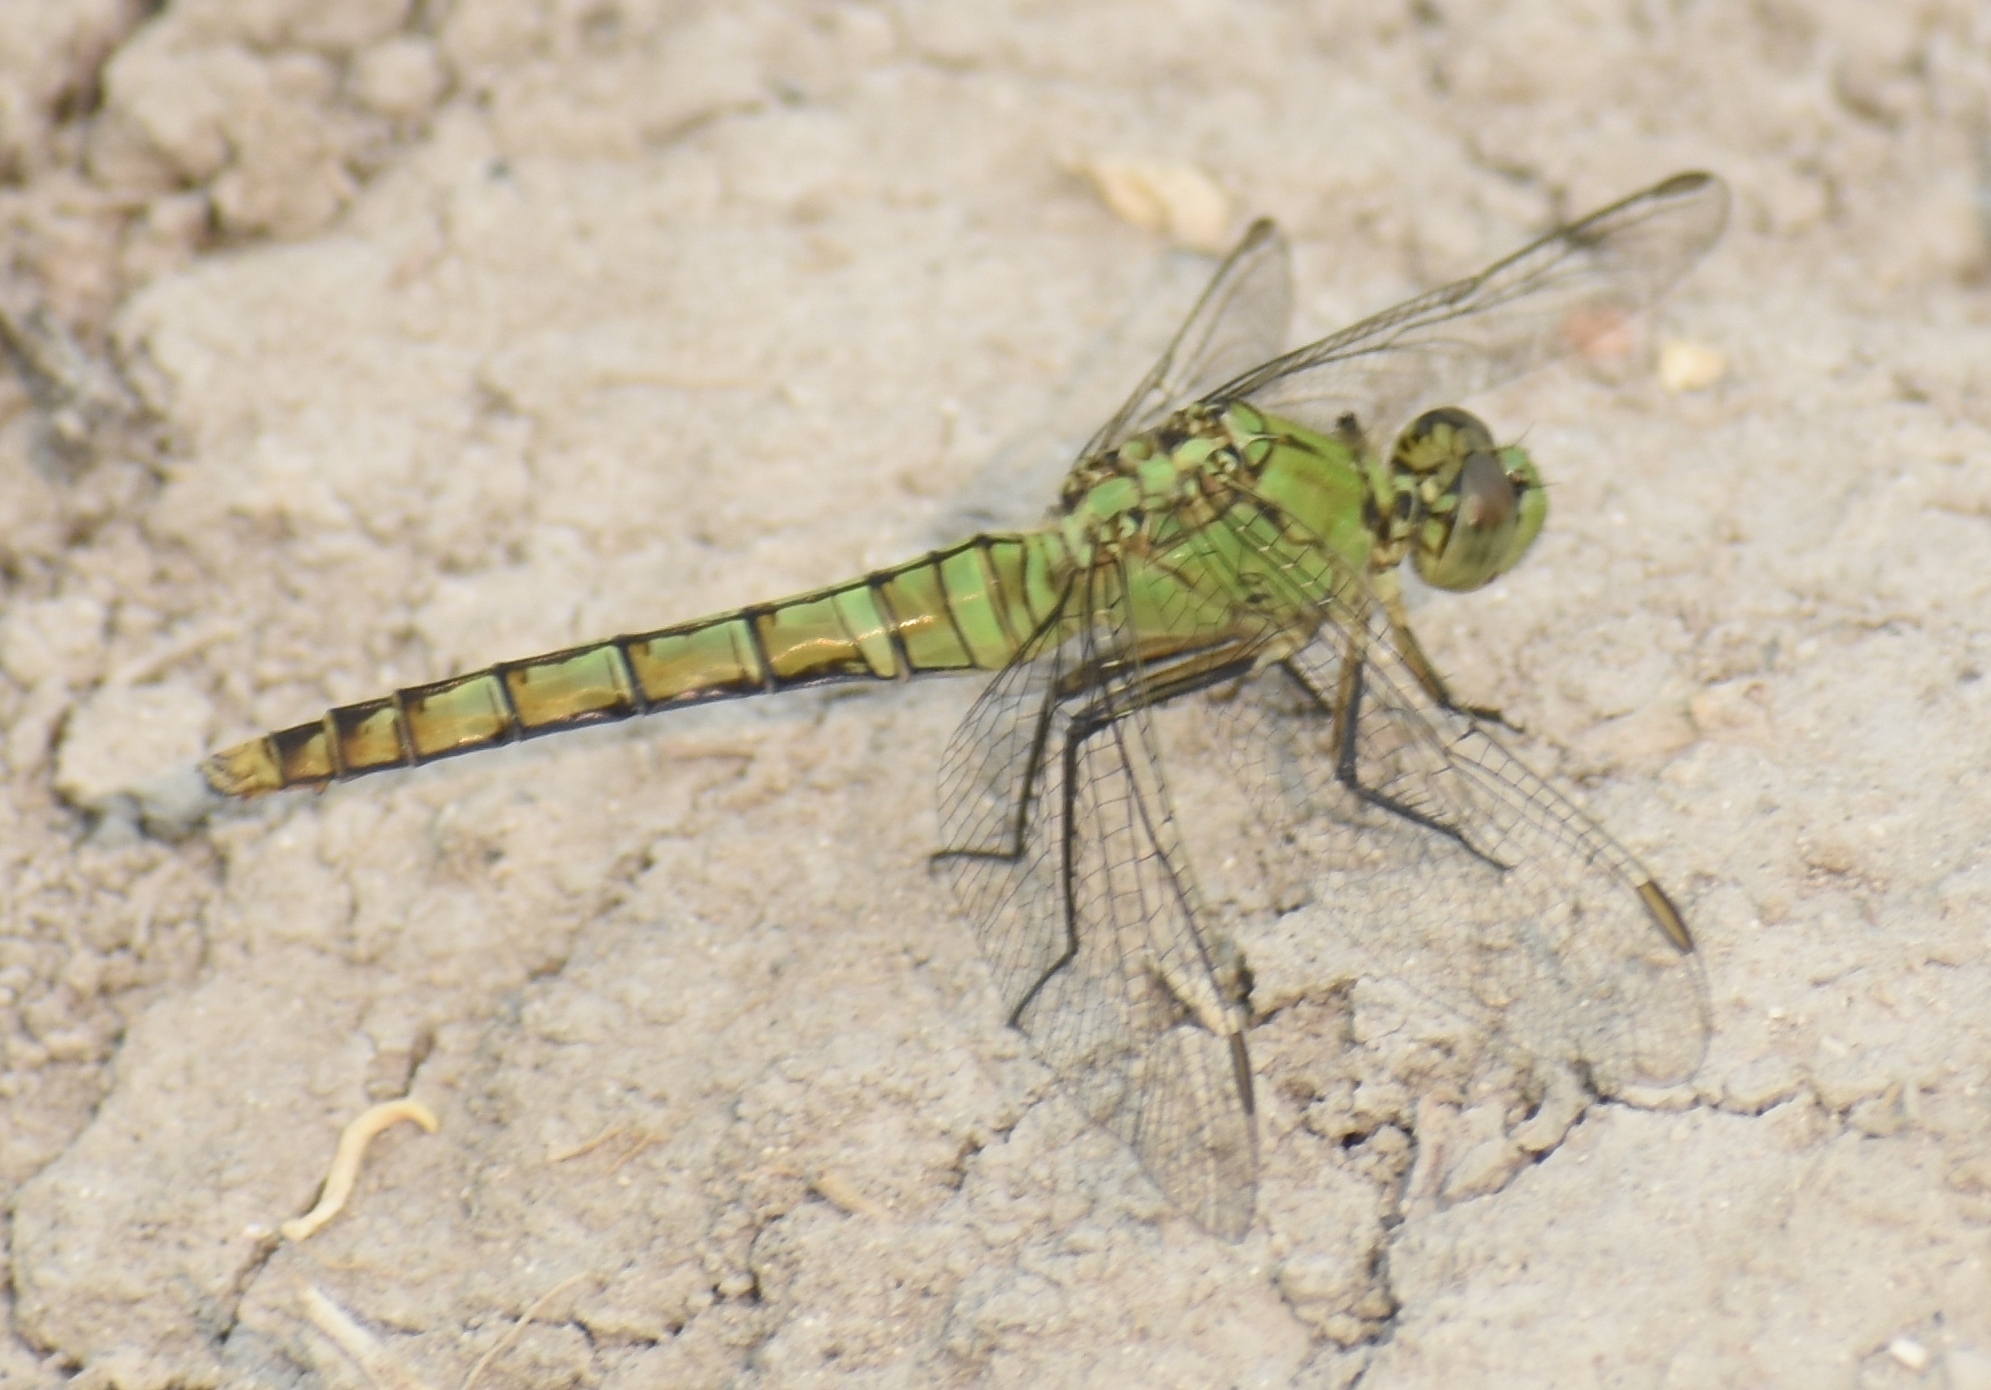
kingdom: Animalia
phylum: Arthropoda
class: Insecta
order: Odonata
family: Libellulidae
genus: Erythemis
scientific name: Erythemis collocata
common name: Western pondhawk
